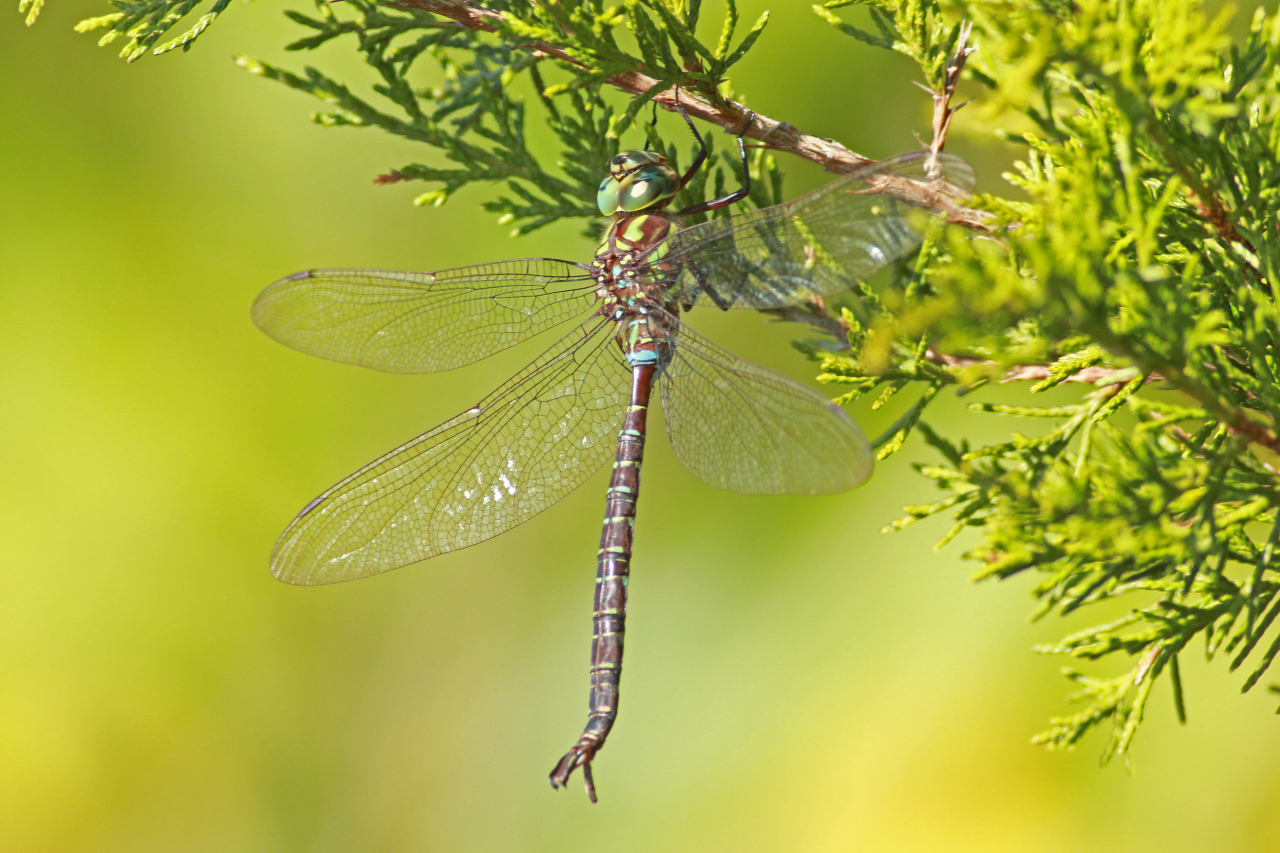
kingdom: Animalia
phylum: Arthropoda
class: Insecta
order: Odonata
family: Aeshnidae
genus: Aeshna
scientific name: Aeshna umbrosa
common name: Shadow darner
